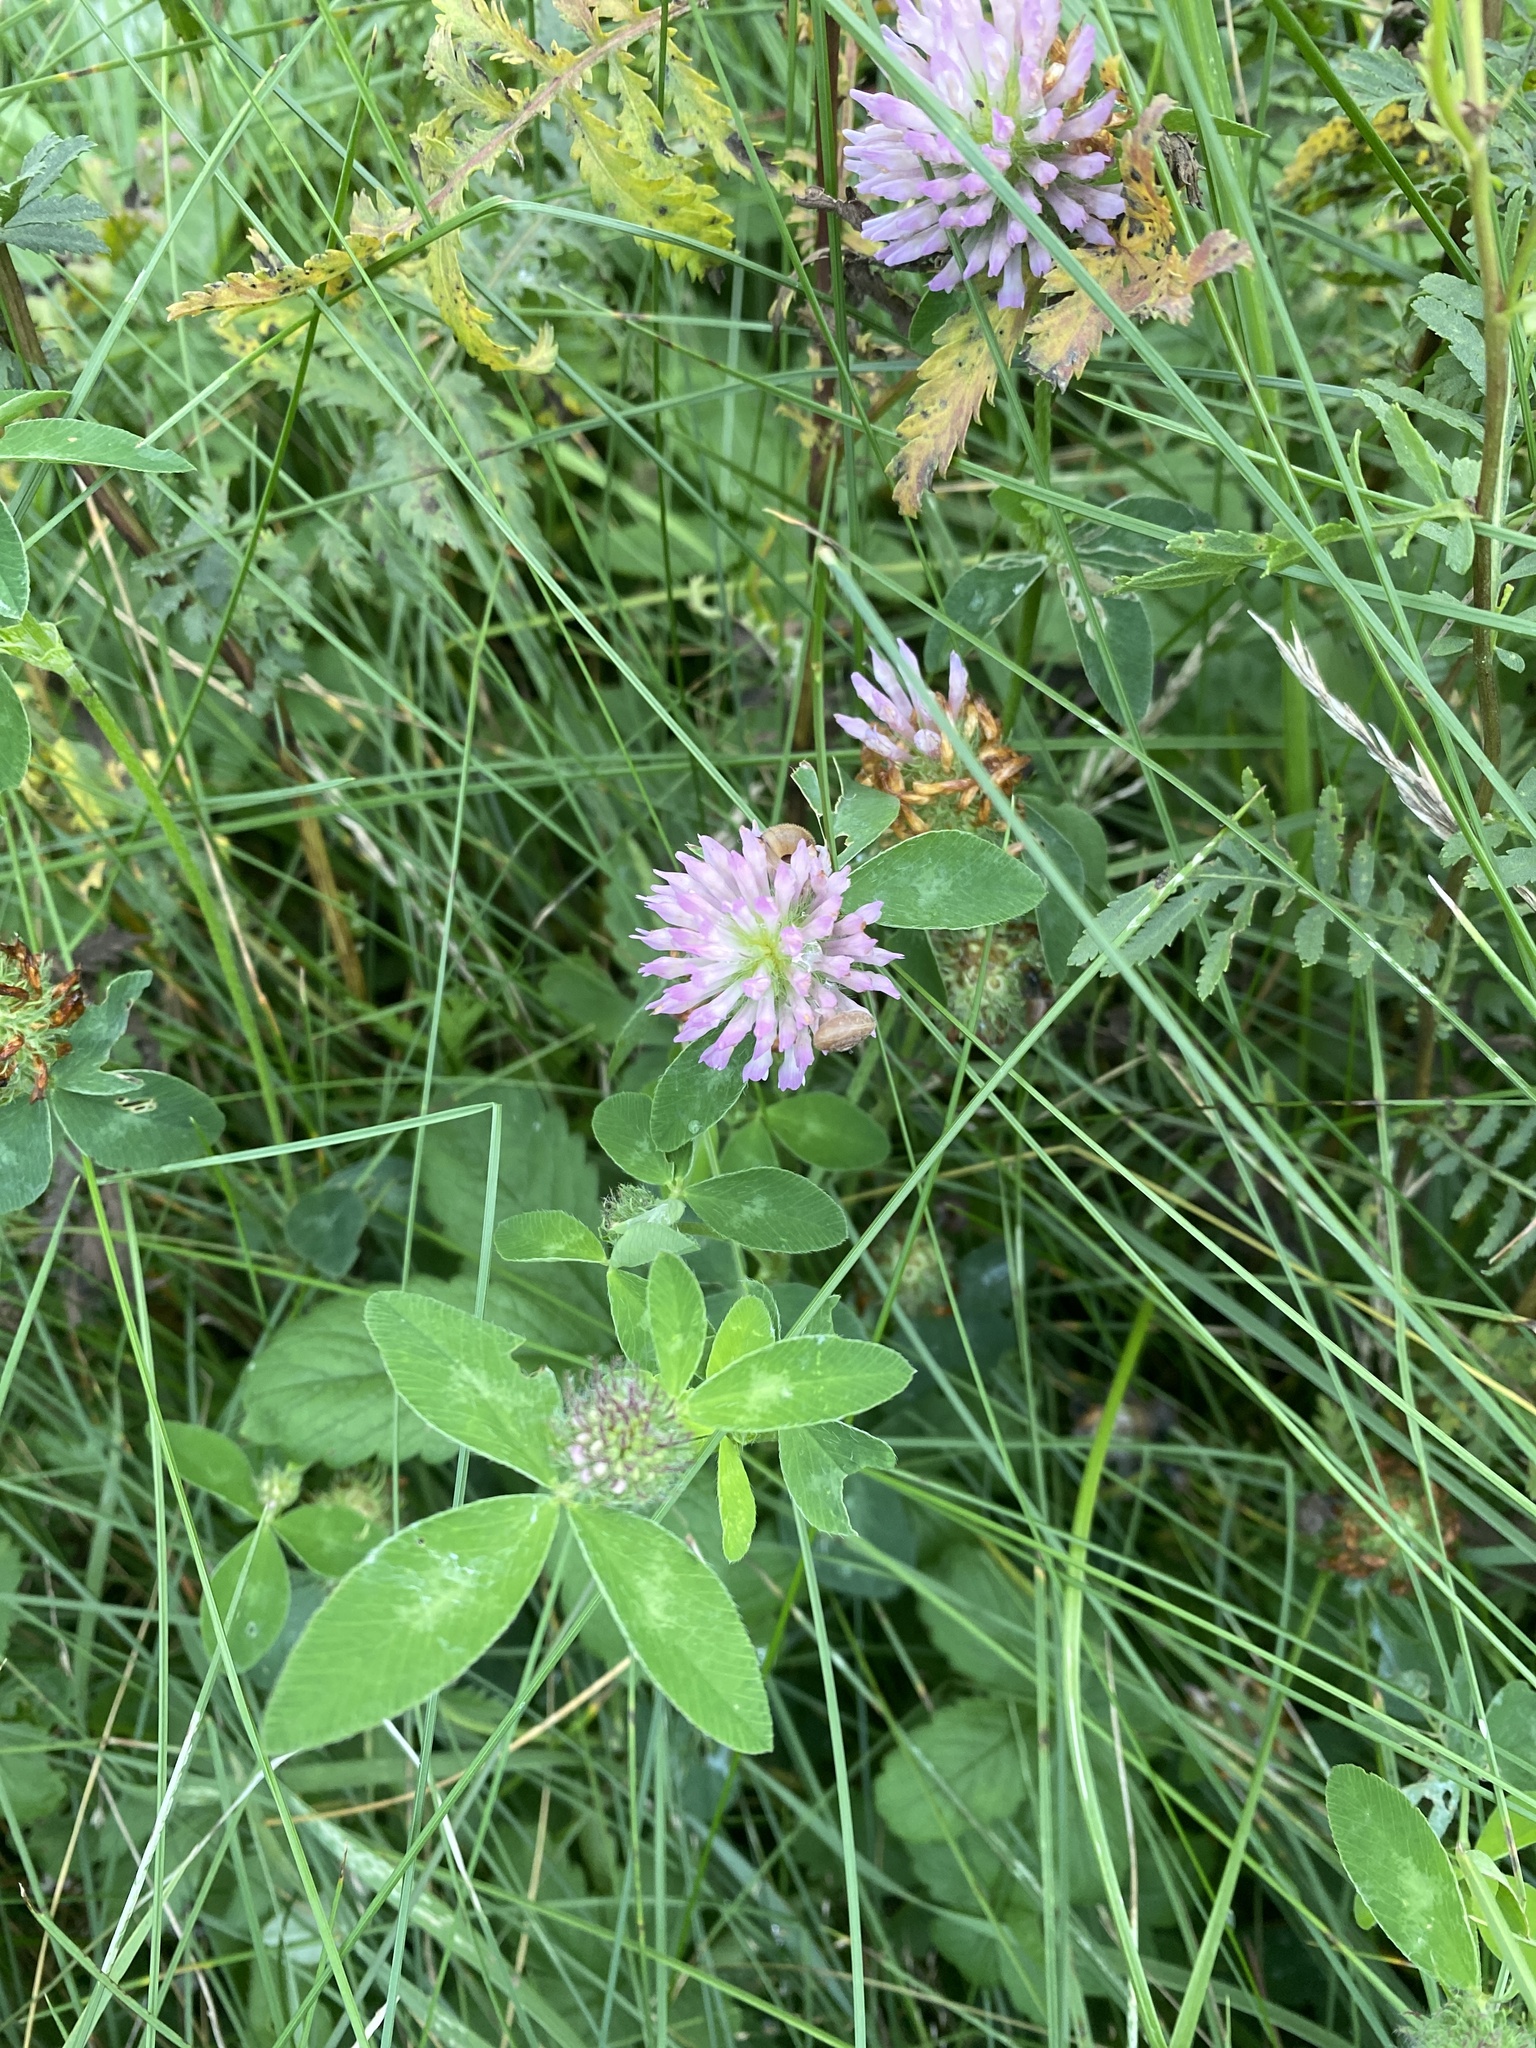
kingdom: Plantae
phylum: Tracheophyta
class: Magnoliopsida
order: Fabales
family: Fabaceae
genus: Trifolium
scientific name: Trifolium pratense
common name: Red clover
